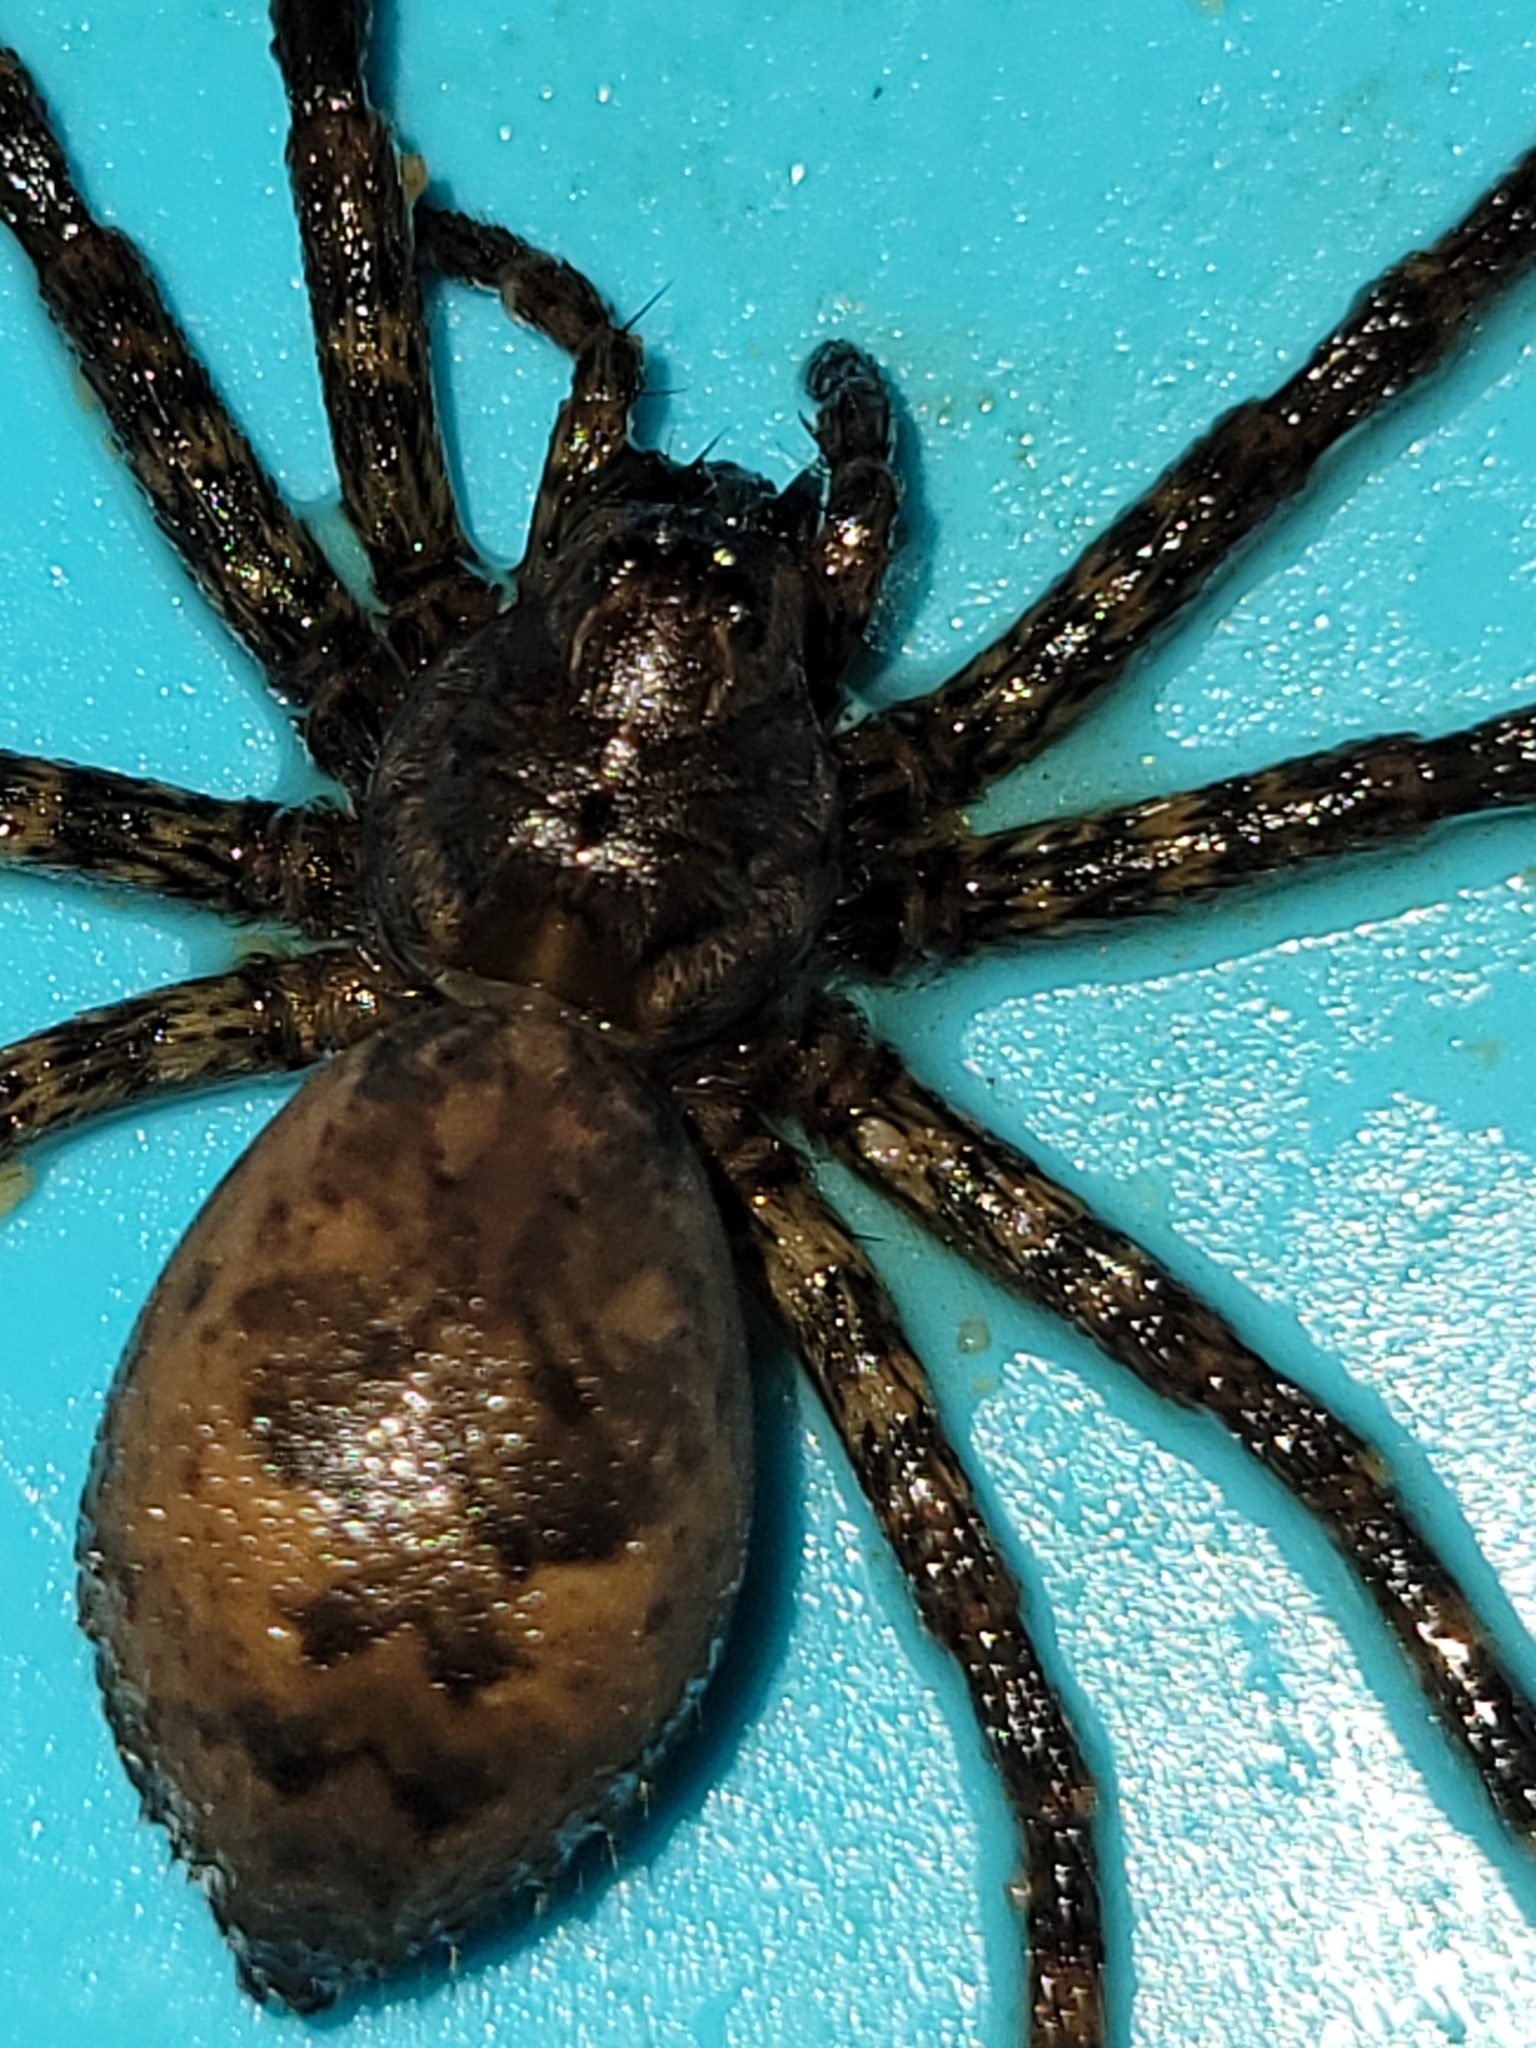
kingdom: Animalia
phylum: Arthropoda
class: Arachnida
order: Araneae
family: Pisauridae
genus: Dolomedes
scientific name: Dolomedes tenebrosus
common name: Dark fishing spider
